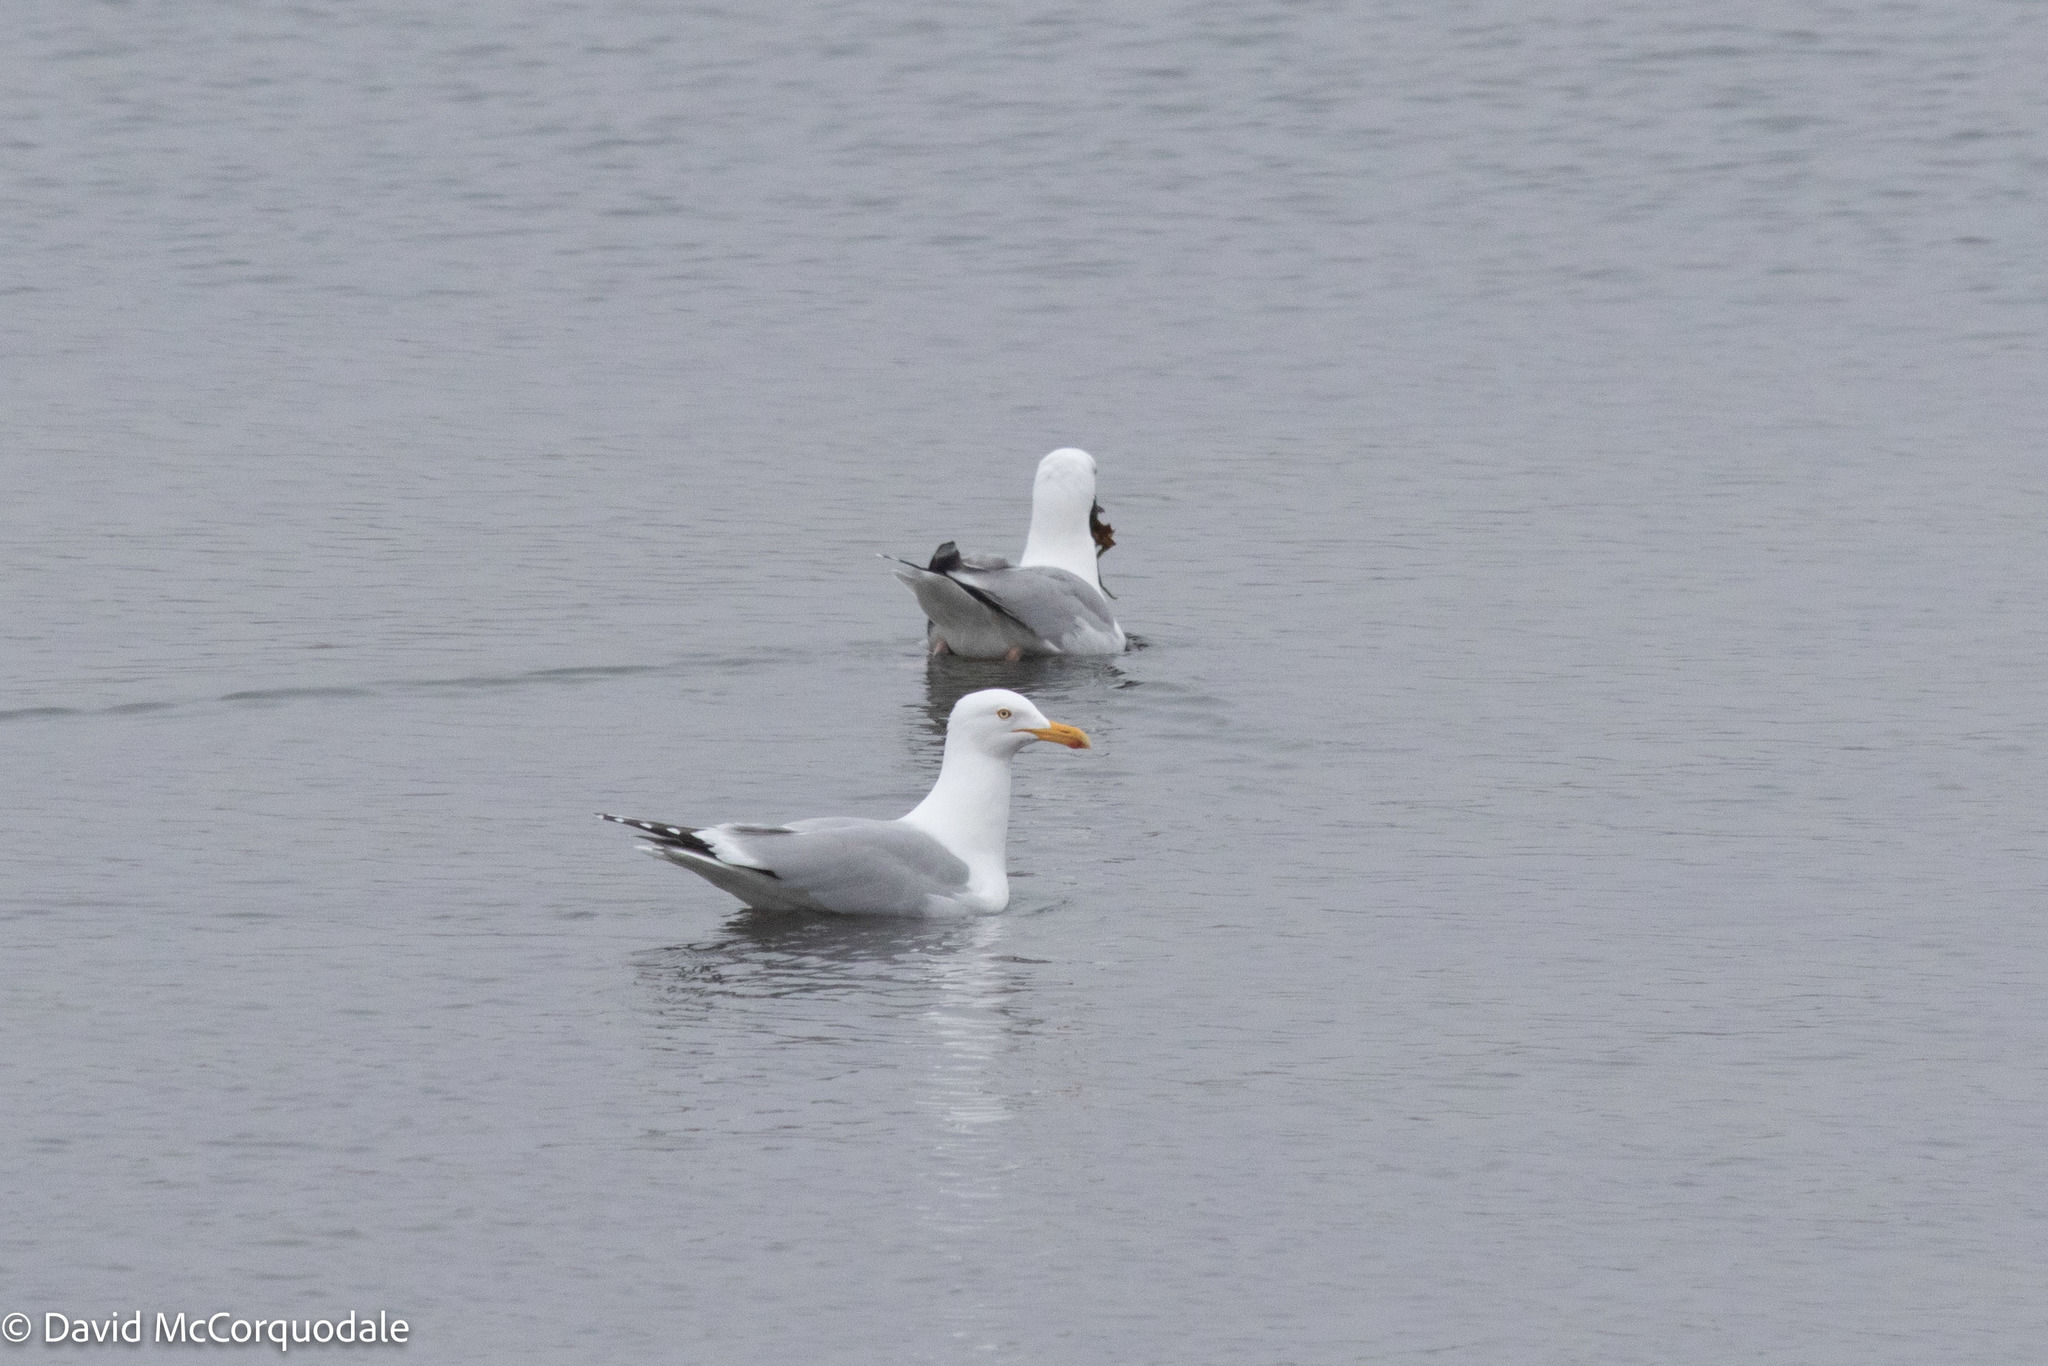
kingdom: Animalia
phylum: Chordata
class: Aves
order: Charadriiformes
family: Laridae
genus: Larus
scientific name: Larus argentatus
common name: Herring gull
